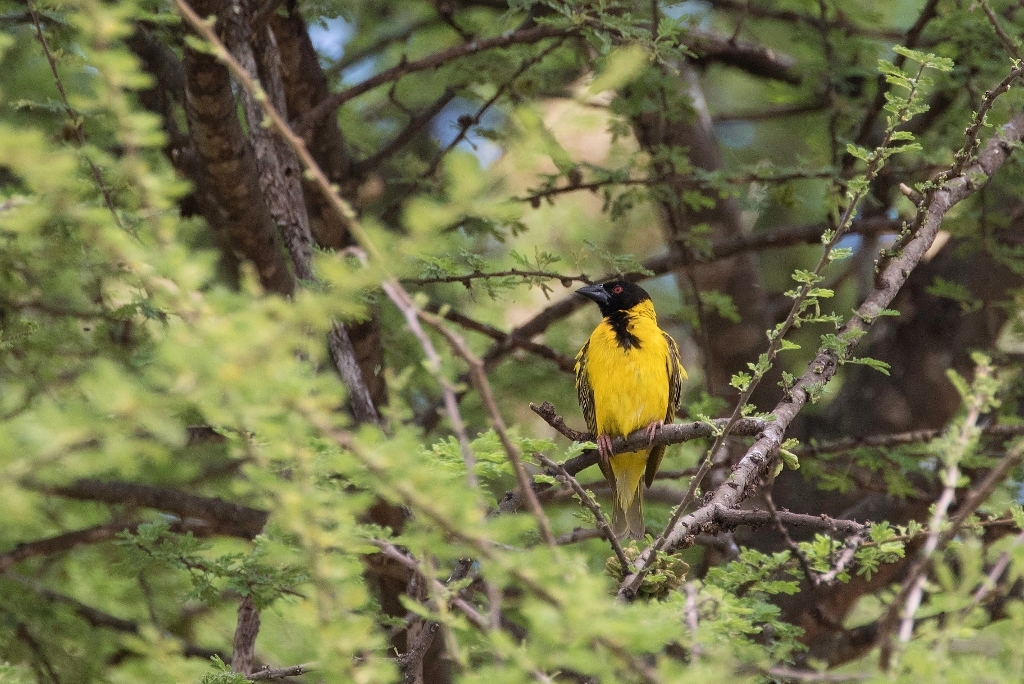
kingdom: Animalia
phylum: Chordata
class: Aves
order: Passeriformes
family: Ploceidae
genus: Ploceus
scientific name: Ploceus cucullatus
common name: Village weaver
